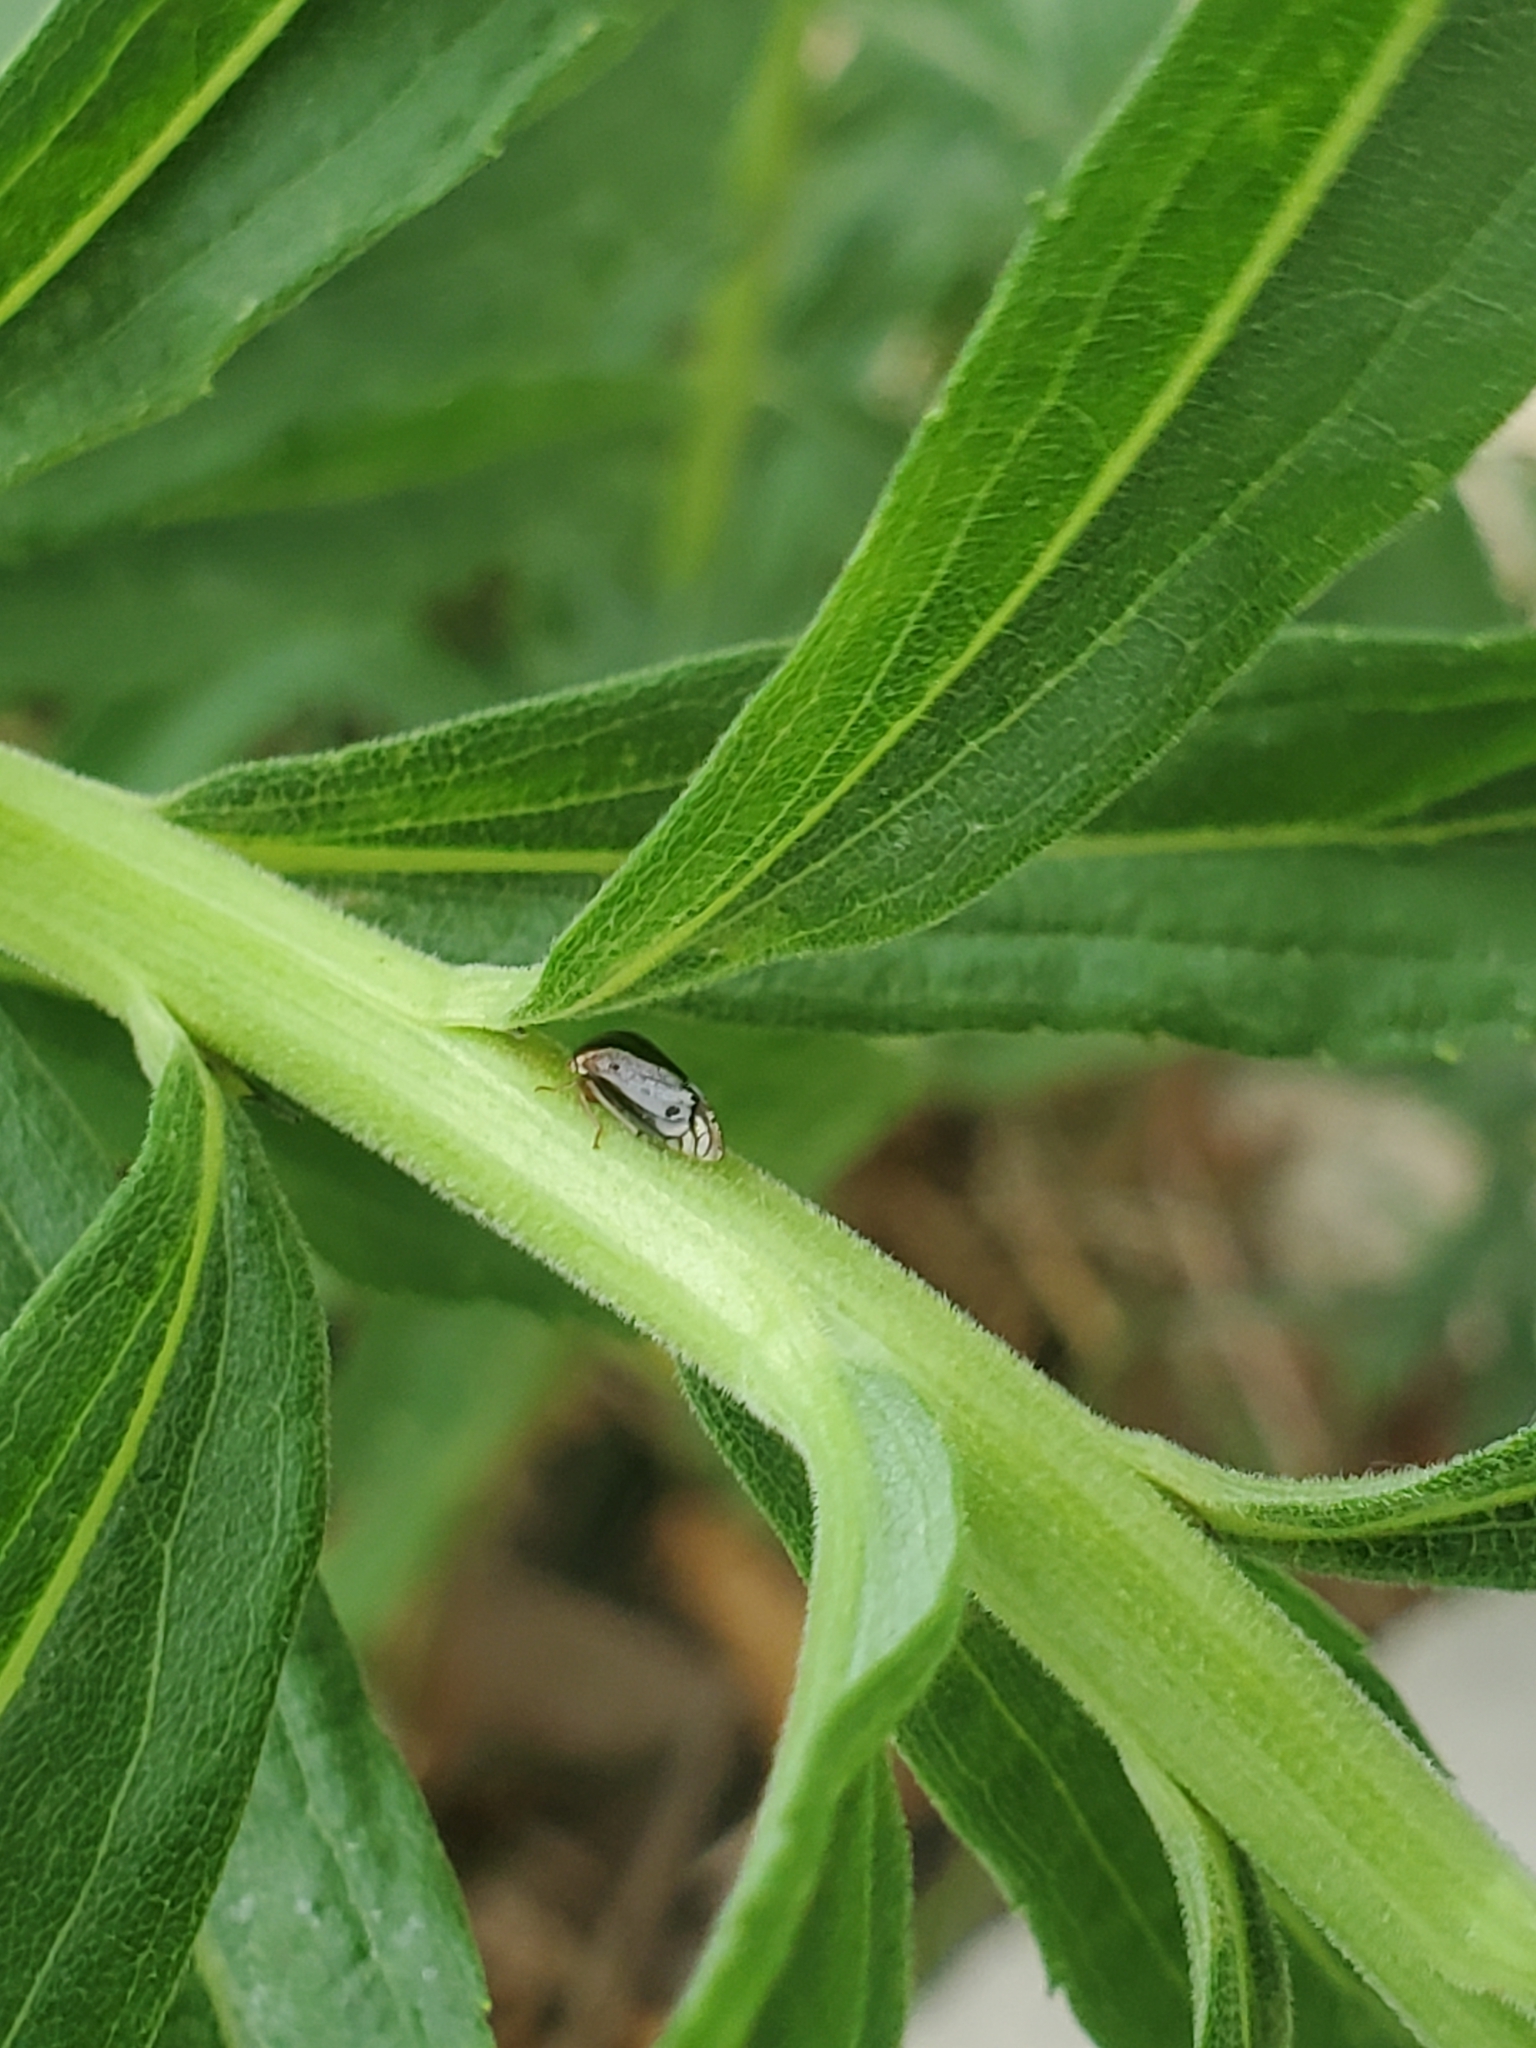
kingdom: Animalia
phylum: Arthropoda
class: Insecta
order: Hemiptera
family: Membracidae
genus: Acutalis
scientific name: Acutalis tartarea
